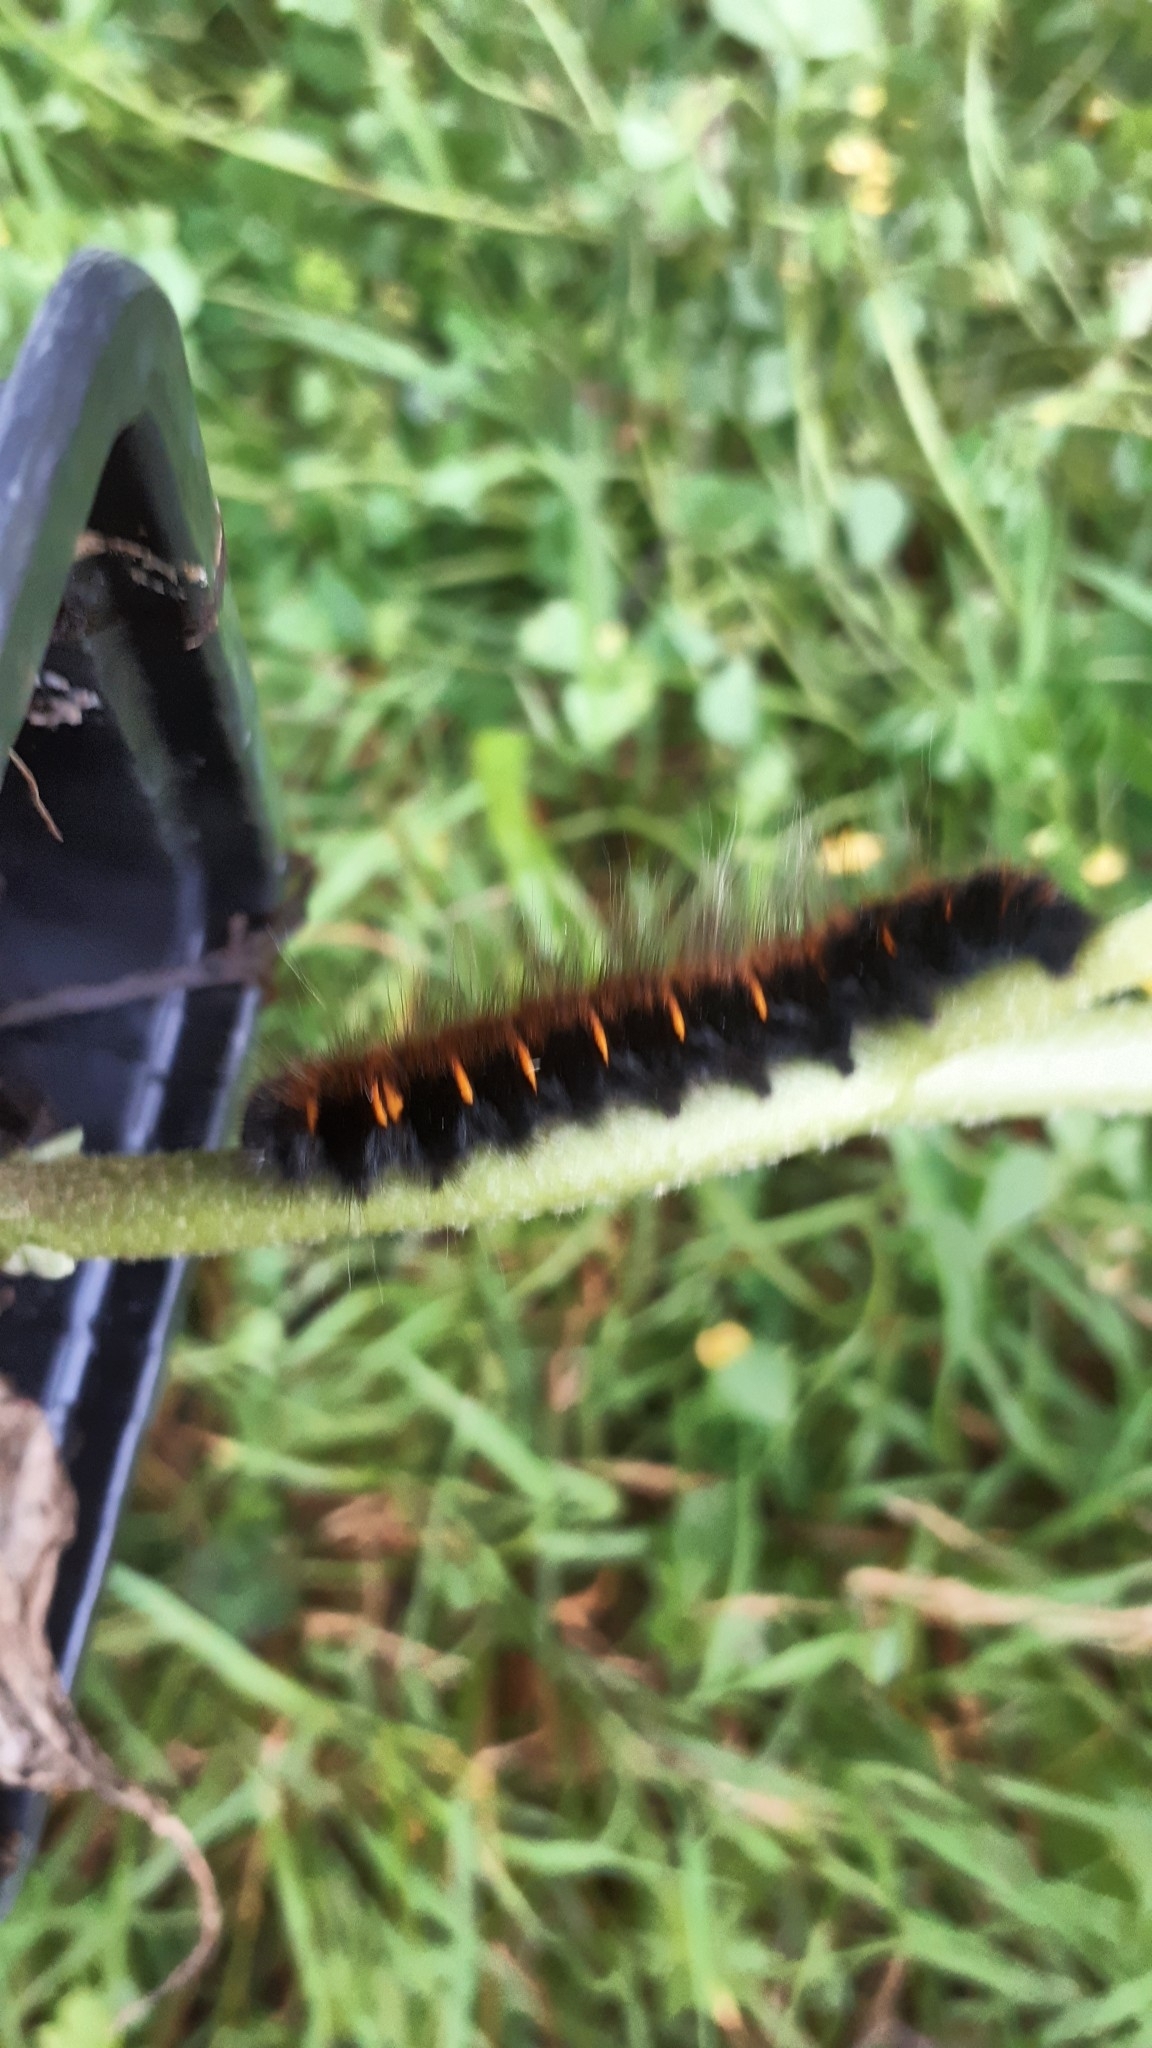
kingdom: Animalia
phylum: Arthropoda
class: Insecta
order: Lepidoptera
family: Lasiocampidae
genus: Macrothylacia
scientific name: Macrothylacia rubi
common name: Fox moth
